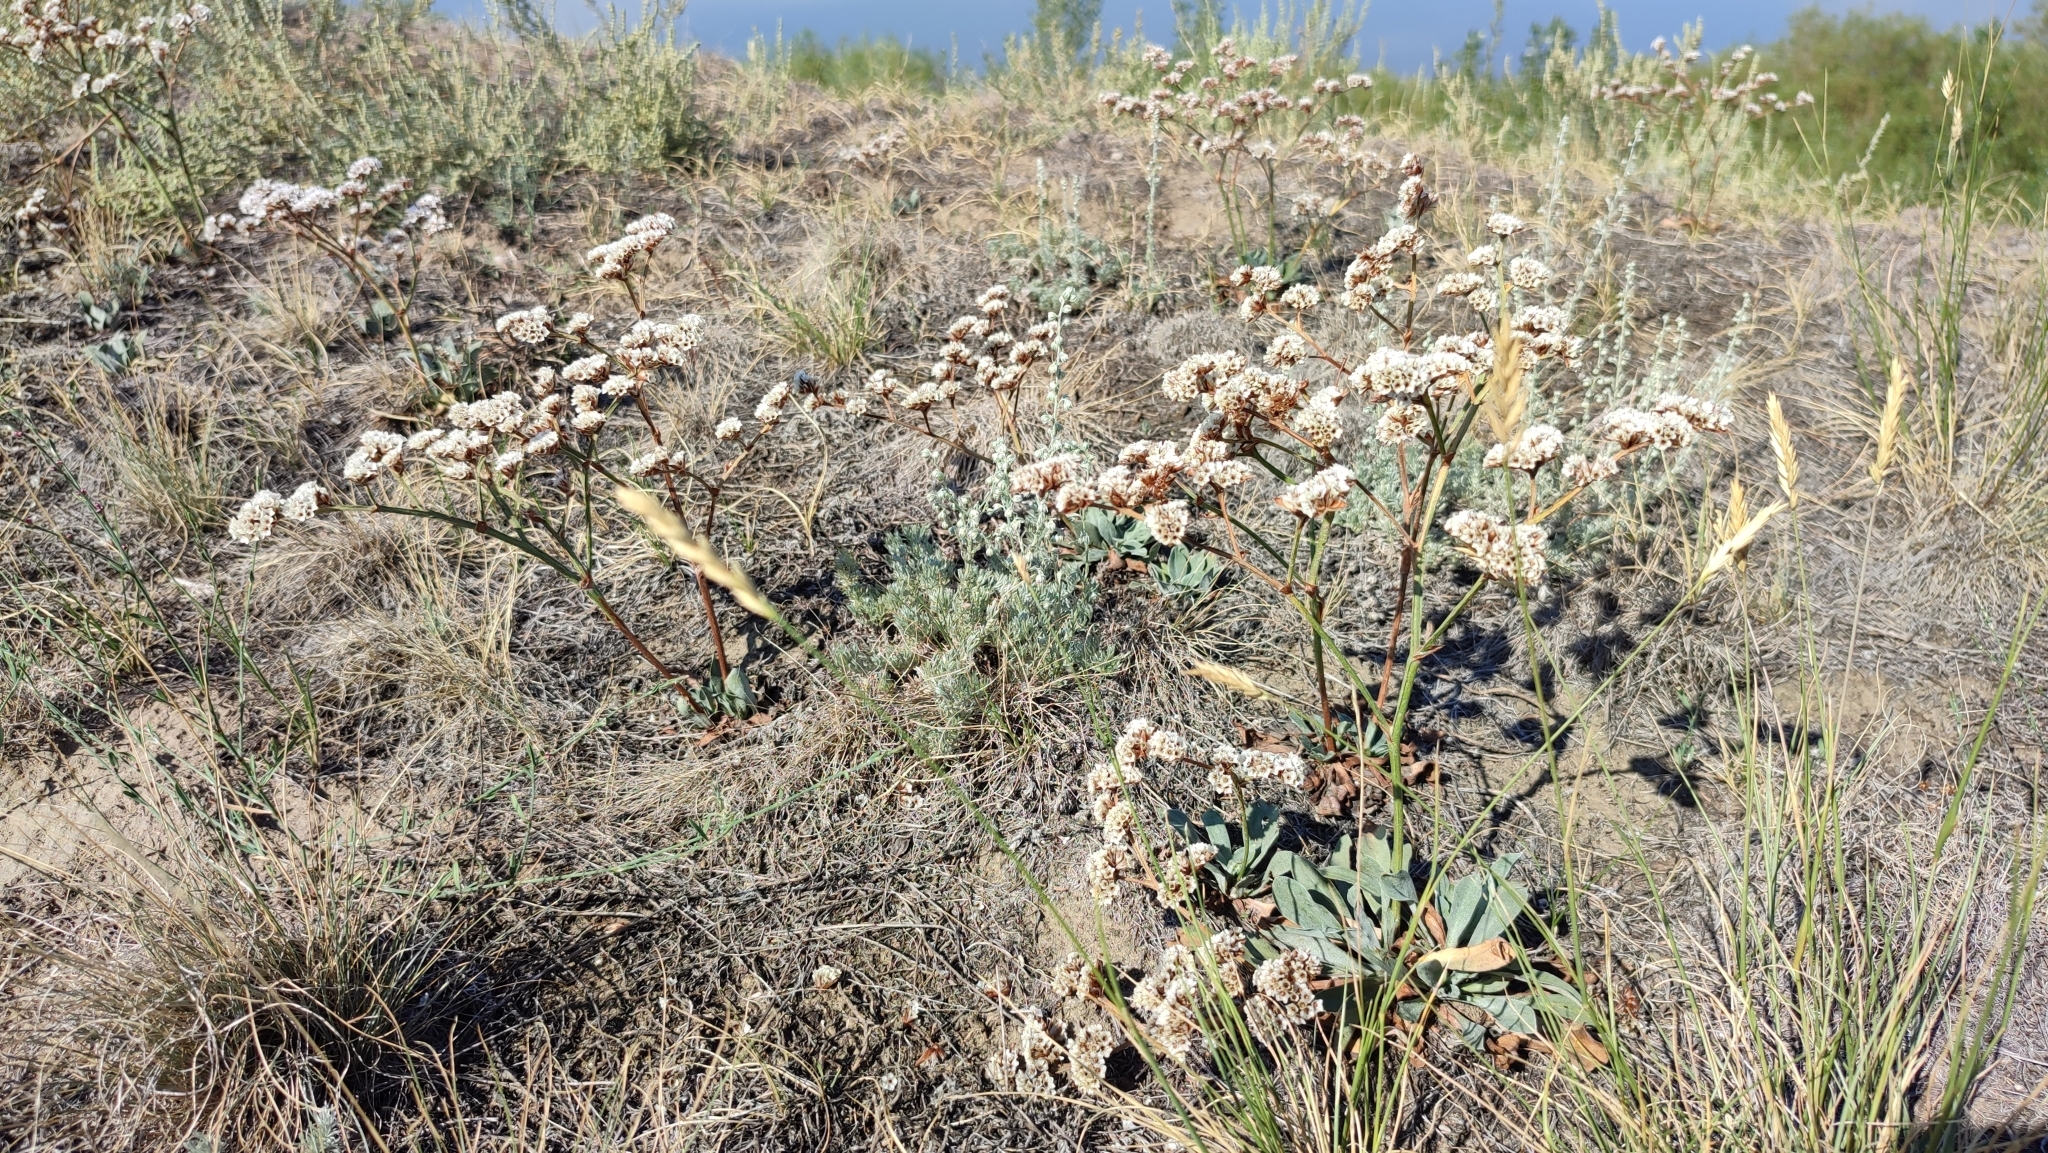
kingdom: Plantae
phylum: Tracheophyta
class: Magnoliopsida
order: Caryophyllales
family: Plumbaginaceae
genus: Goniolimon
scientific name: Goniolimon speciosum
